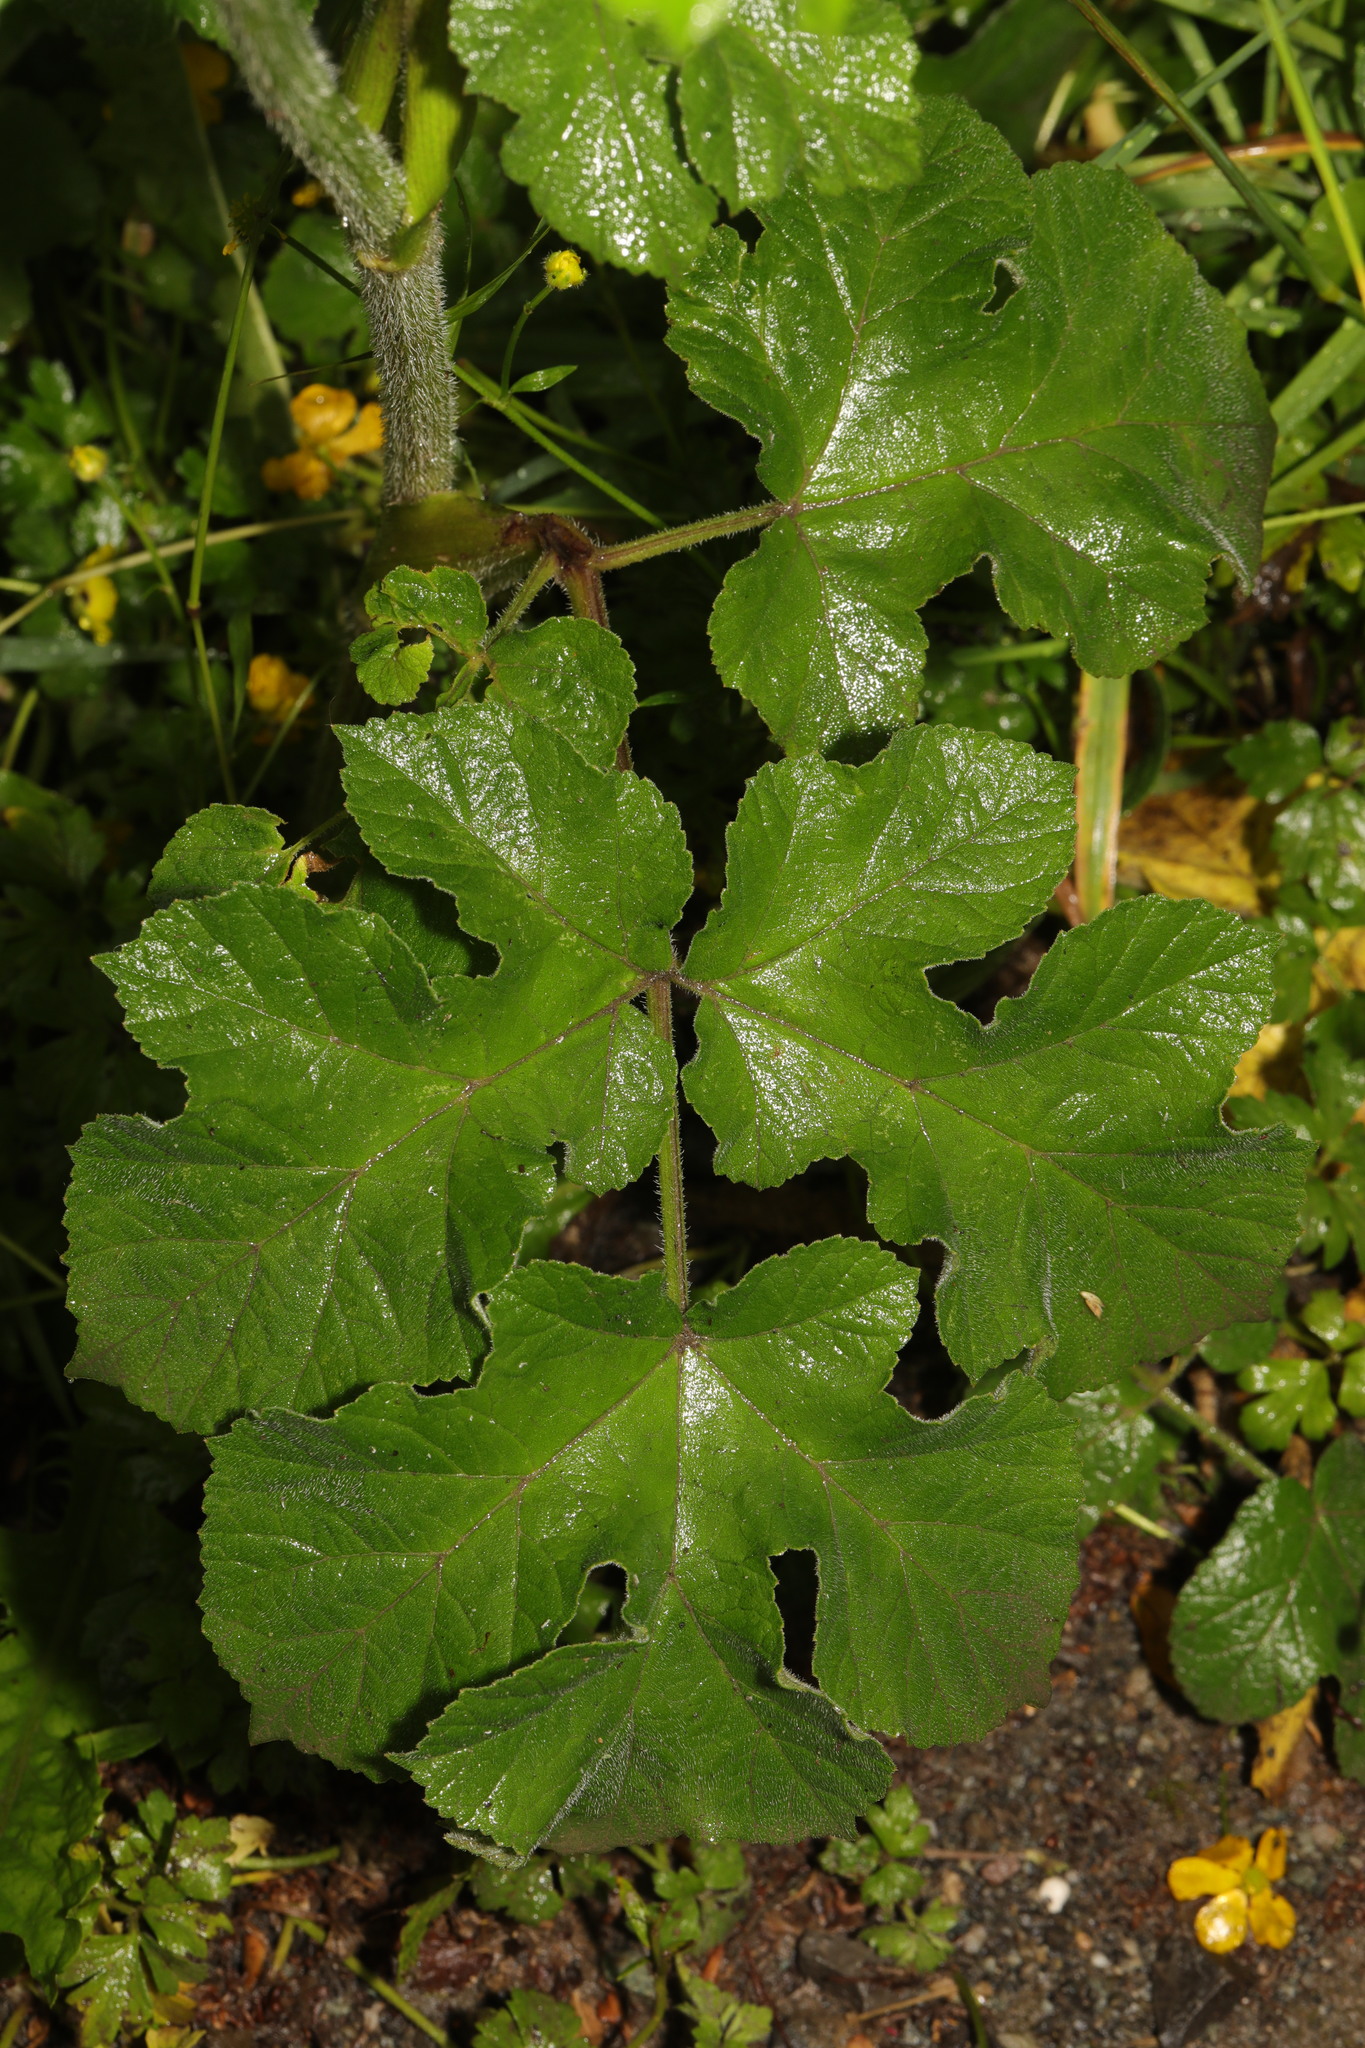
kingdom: Plantae
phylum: Tracheophyta
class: Magnoliopsida
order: Apiales
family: Apiaceae
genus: Heracleum
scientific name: Heracleum sphondylium
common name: Hogweed
